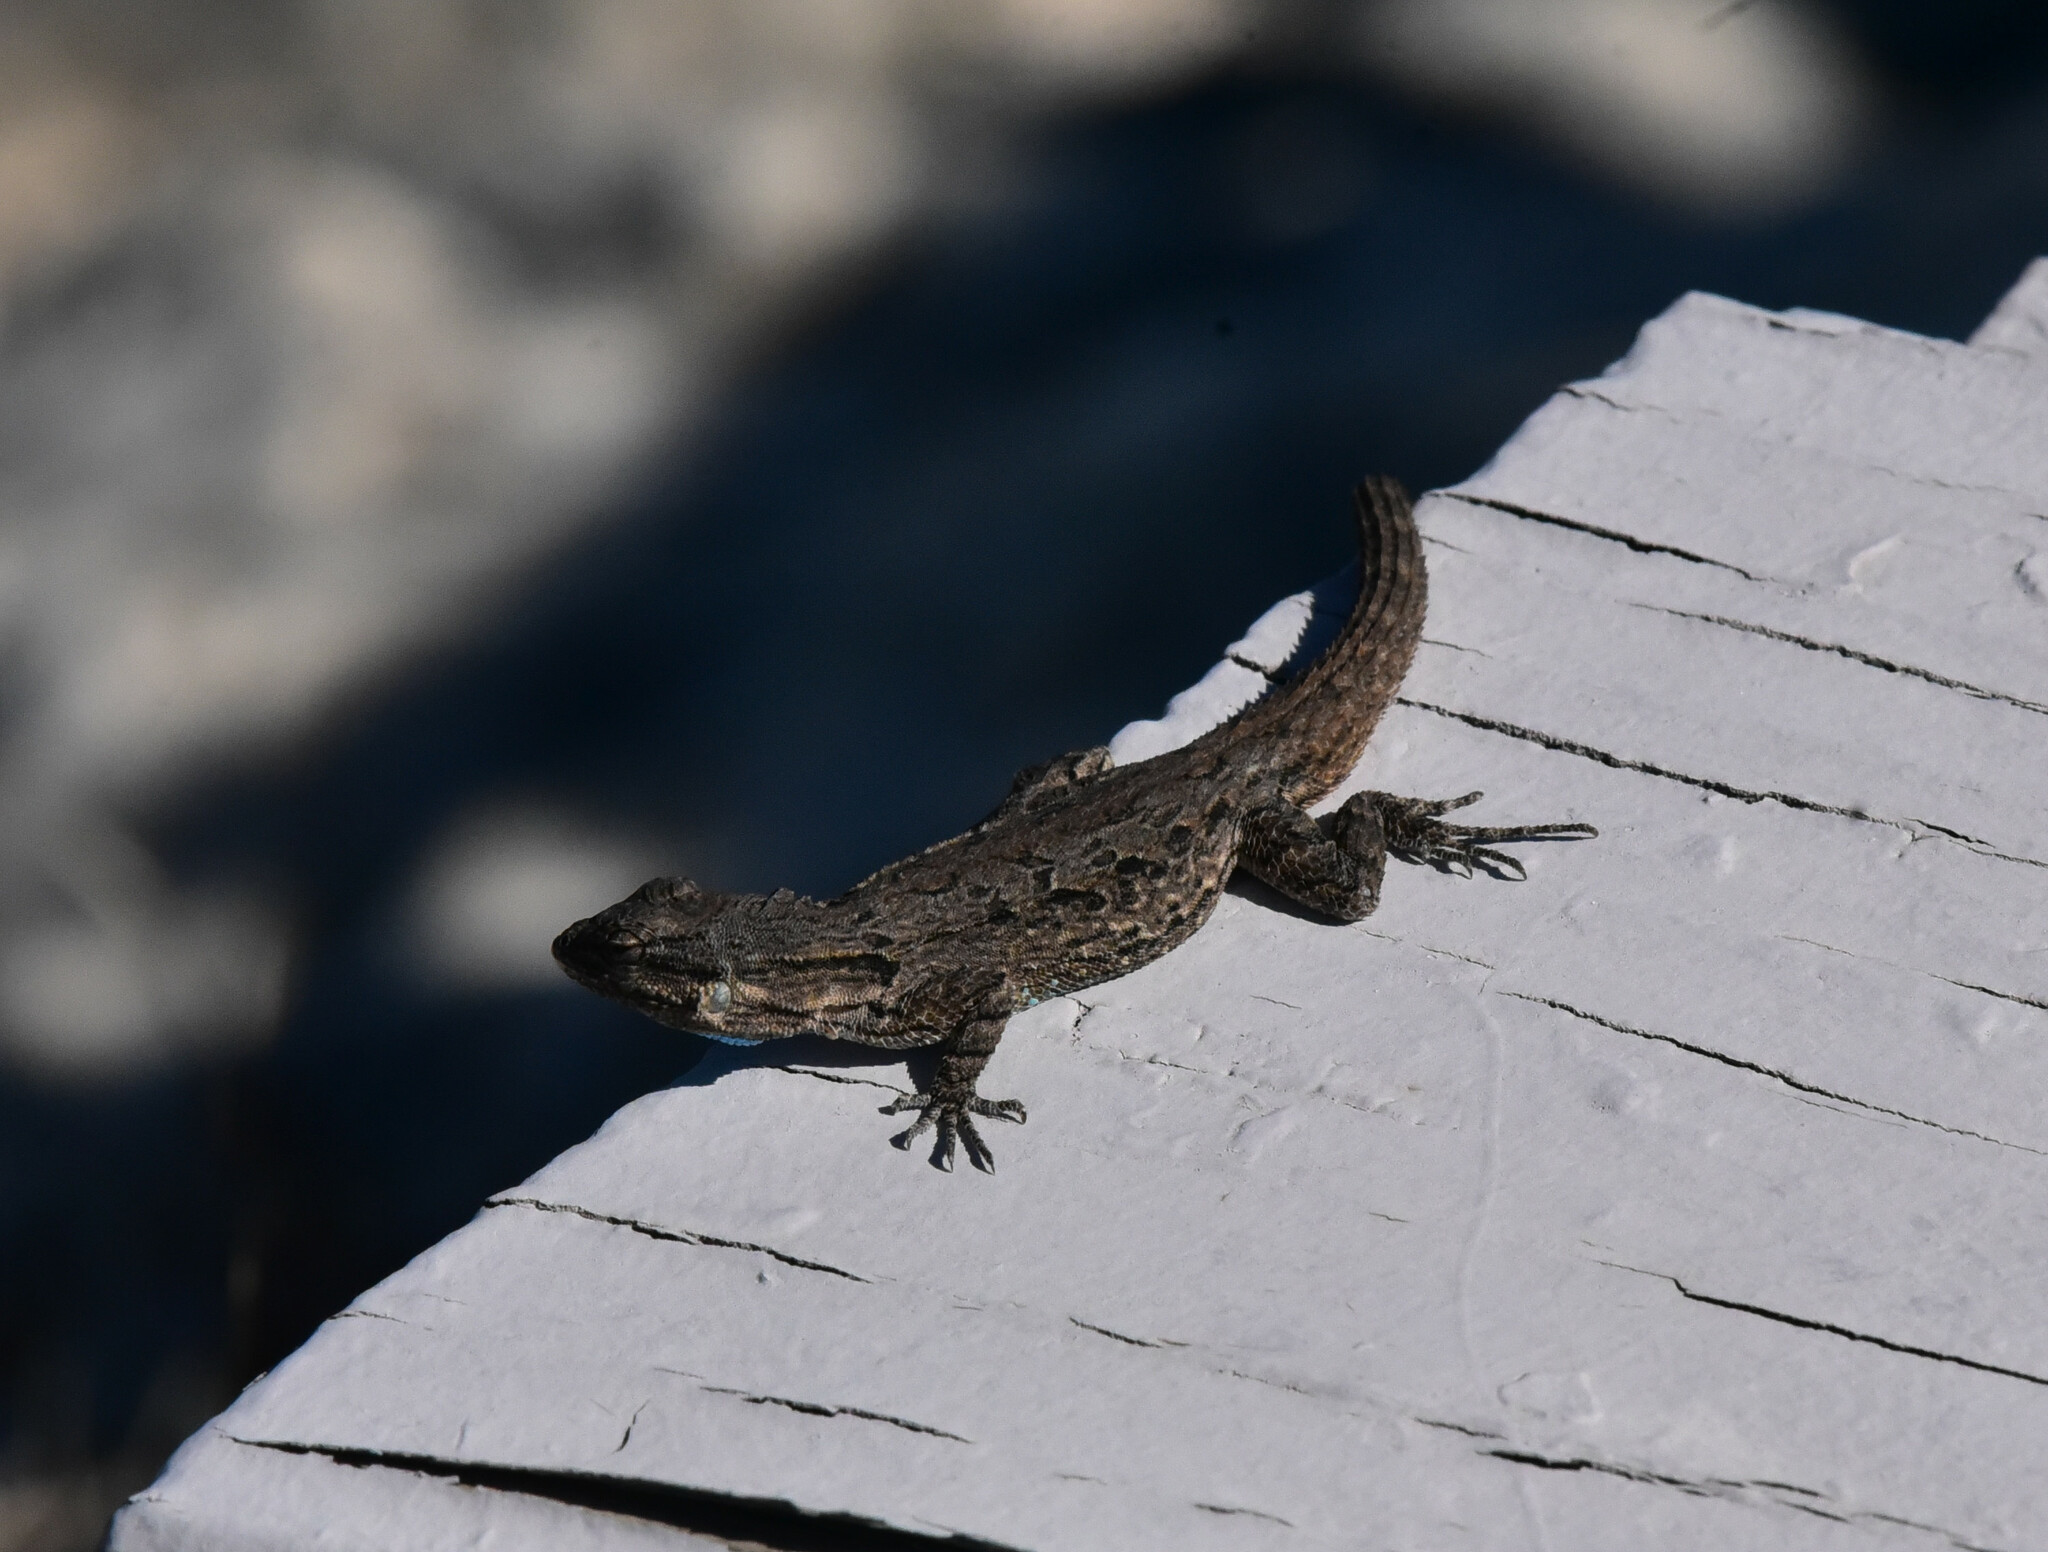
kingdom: Animalia
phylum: Chordata
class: Squamata
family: Phrynosomatidae
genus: Urosaurus
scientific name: Urosaurus ornatus
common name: Ornate tree lizard
